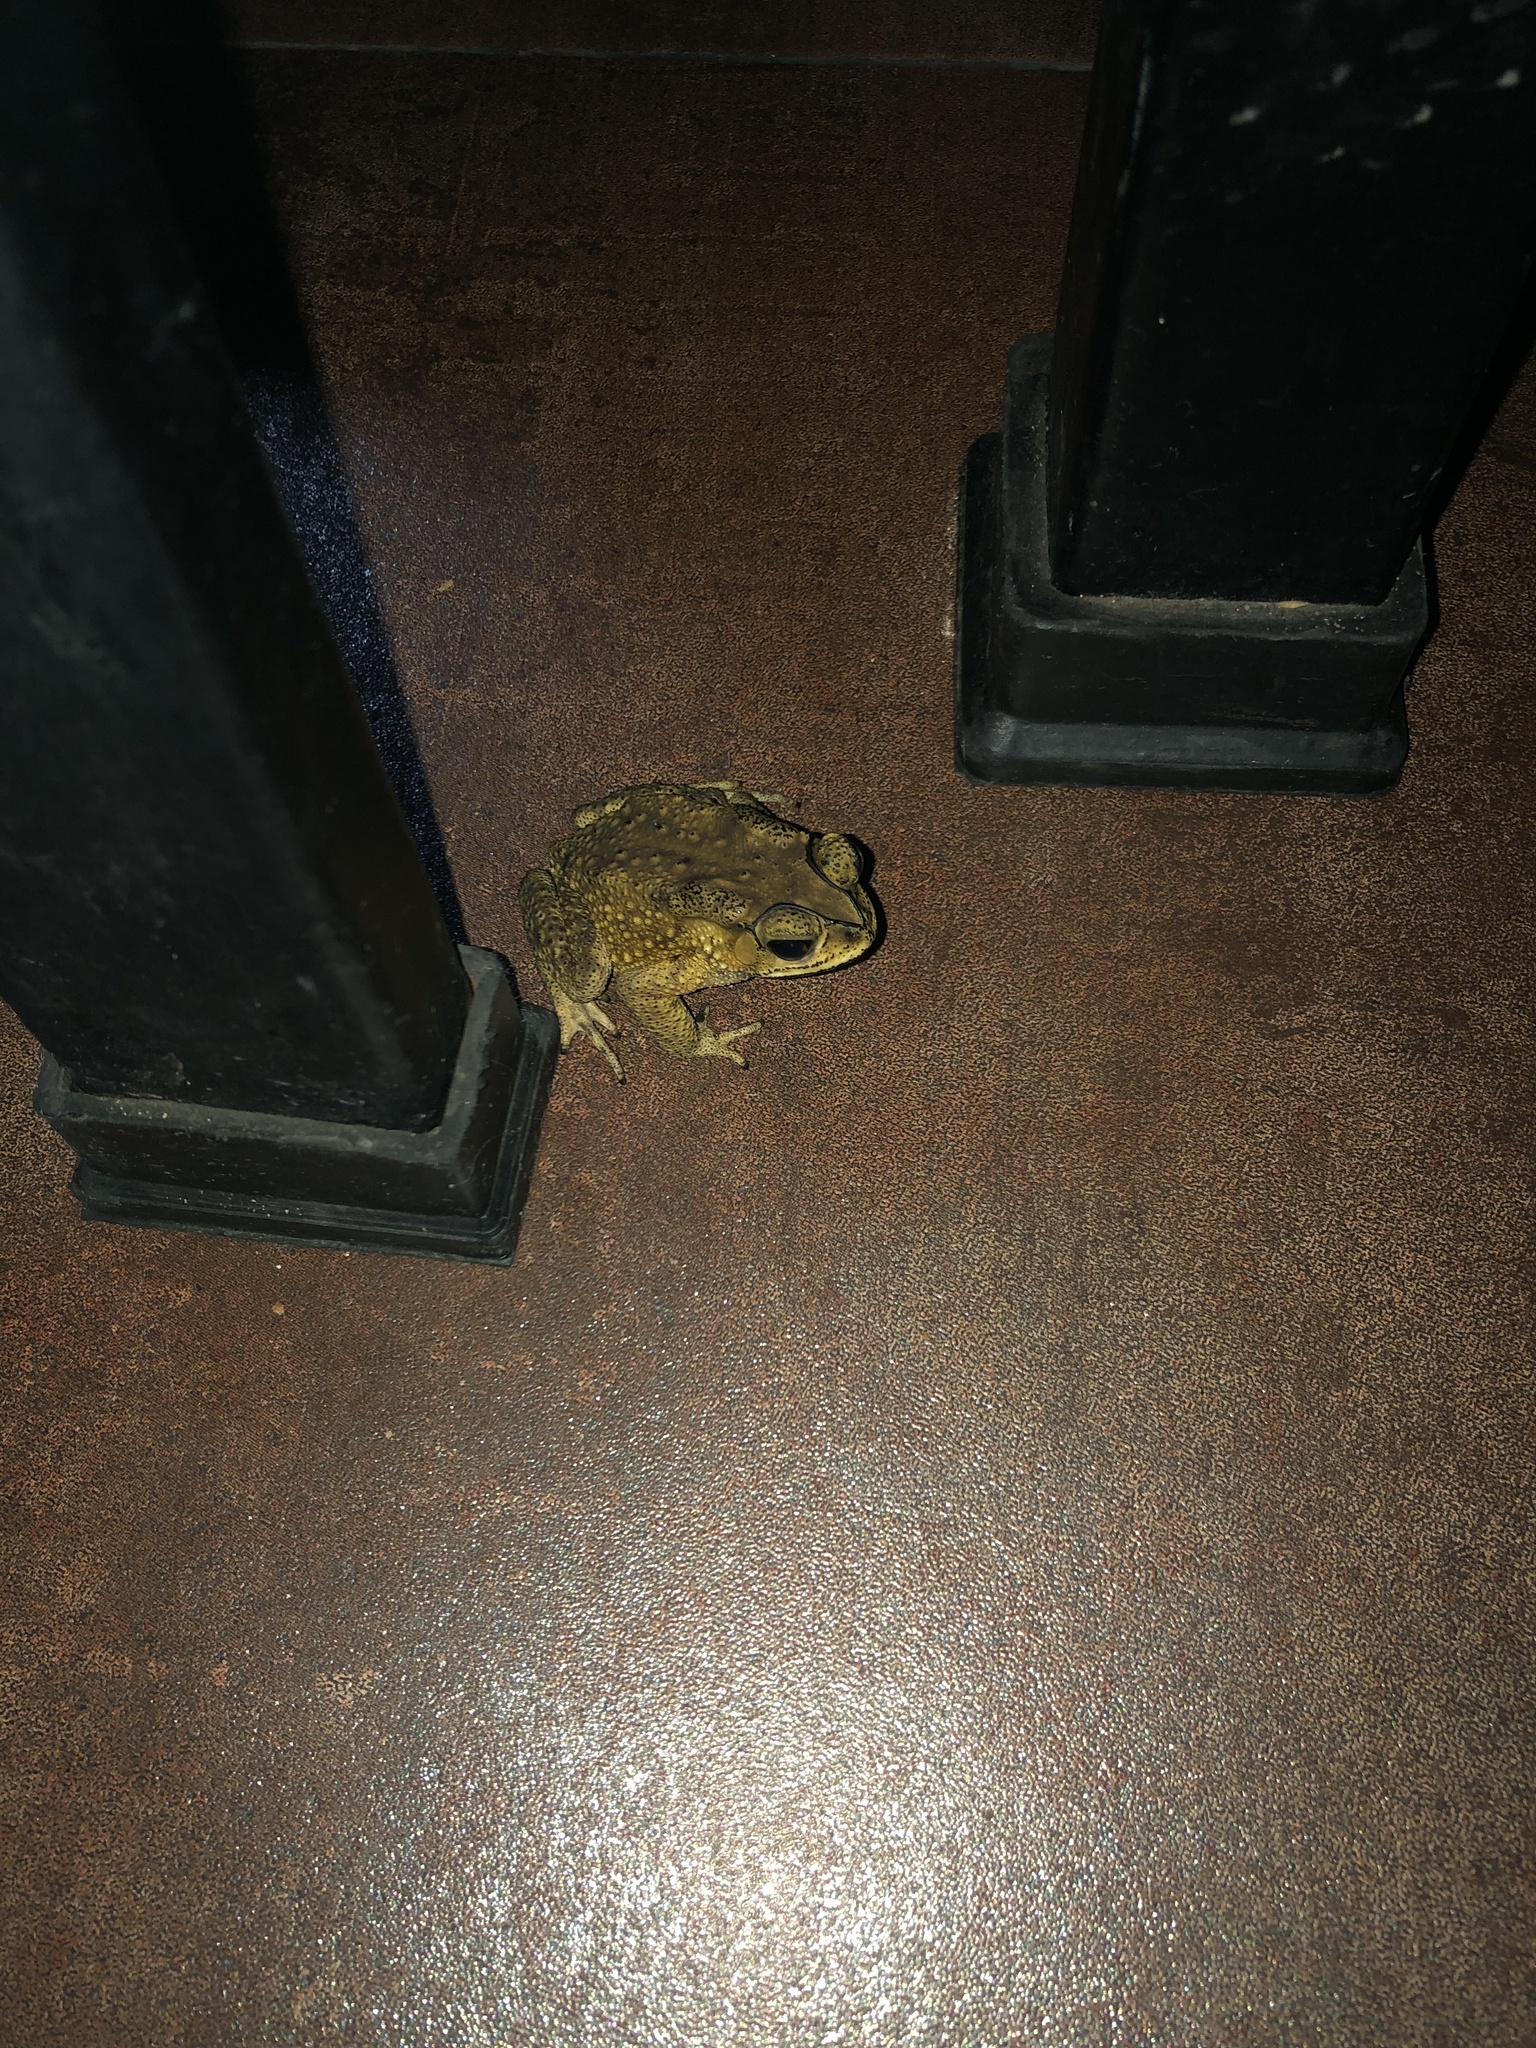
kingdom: Animalia
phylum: Chordata
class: Amphibia
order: Anura
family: Bufonidae
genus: Duttaphrynus
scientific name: Duttaphrynus melanostictus
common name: Common sunda toad
